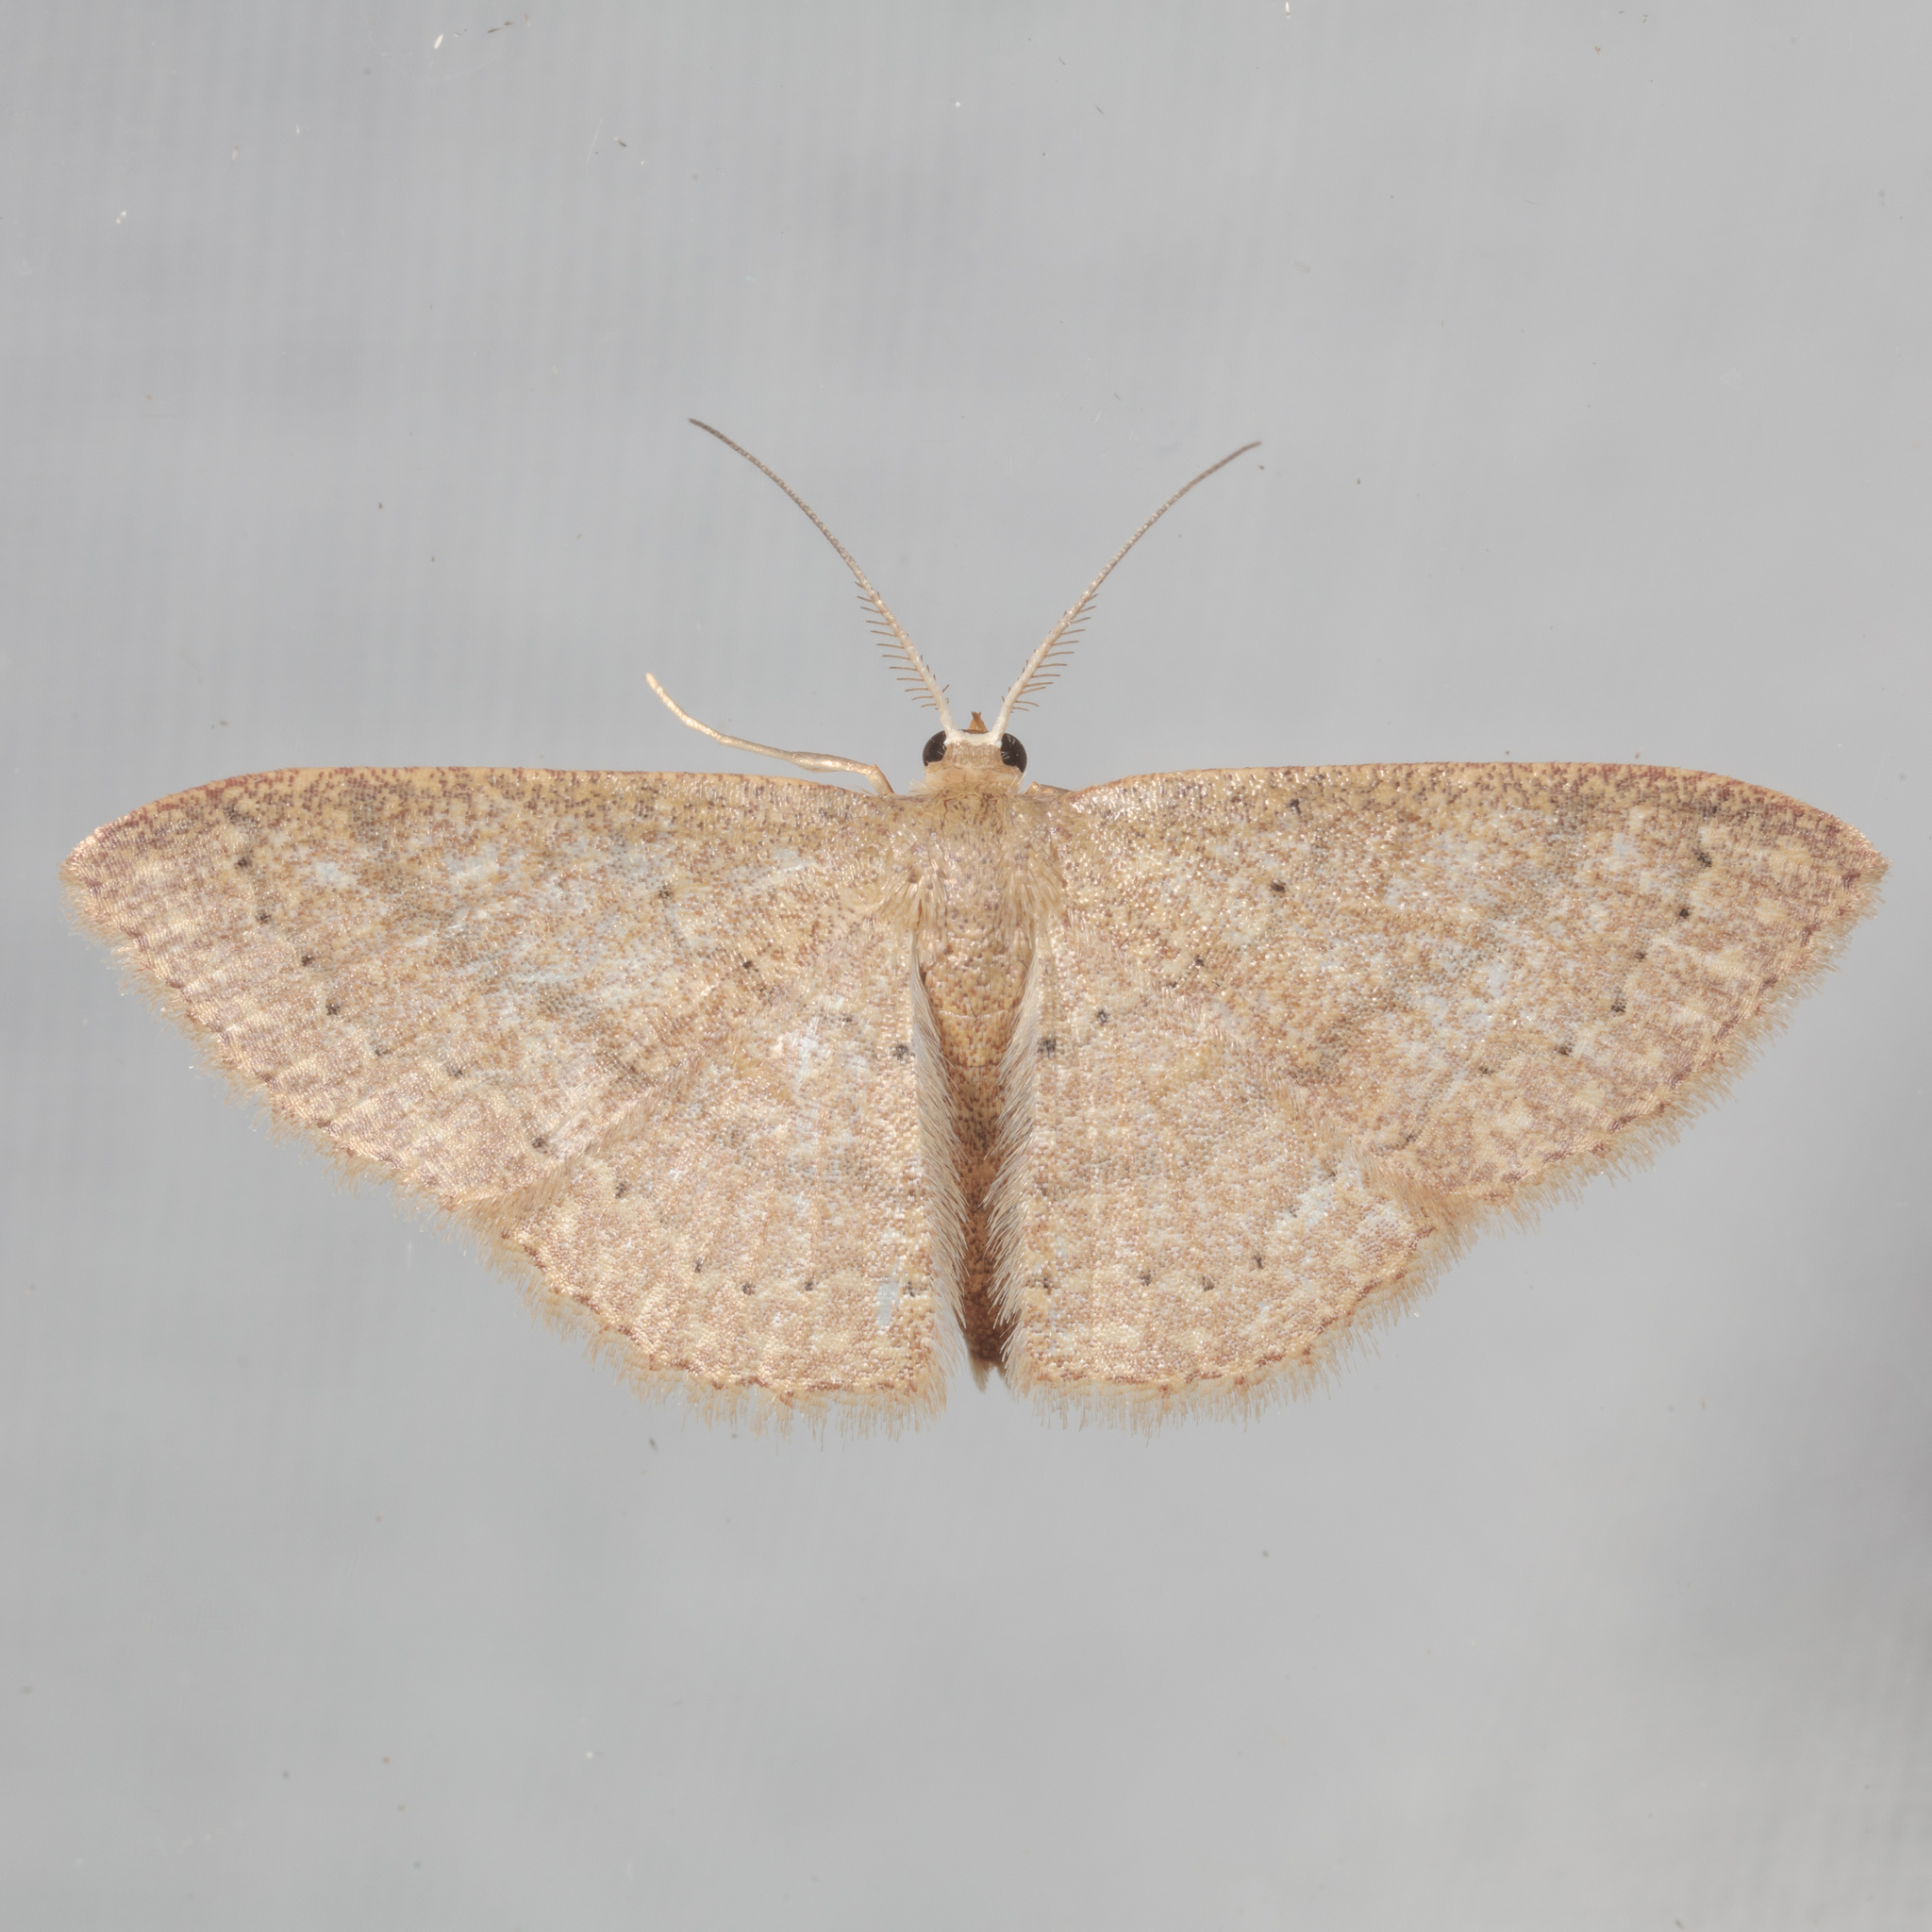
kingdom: Animalia
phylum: Arthropoda
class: Insecta
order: Lepidoptera
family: Geometridae
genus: Pleuroprucha
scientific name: Pleuroprucha insulsaria
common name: Common tan wave
